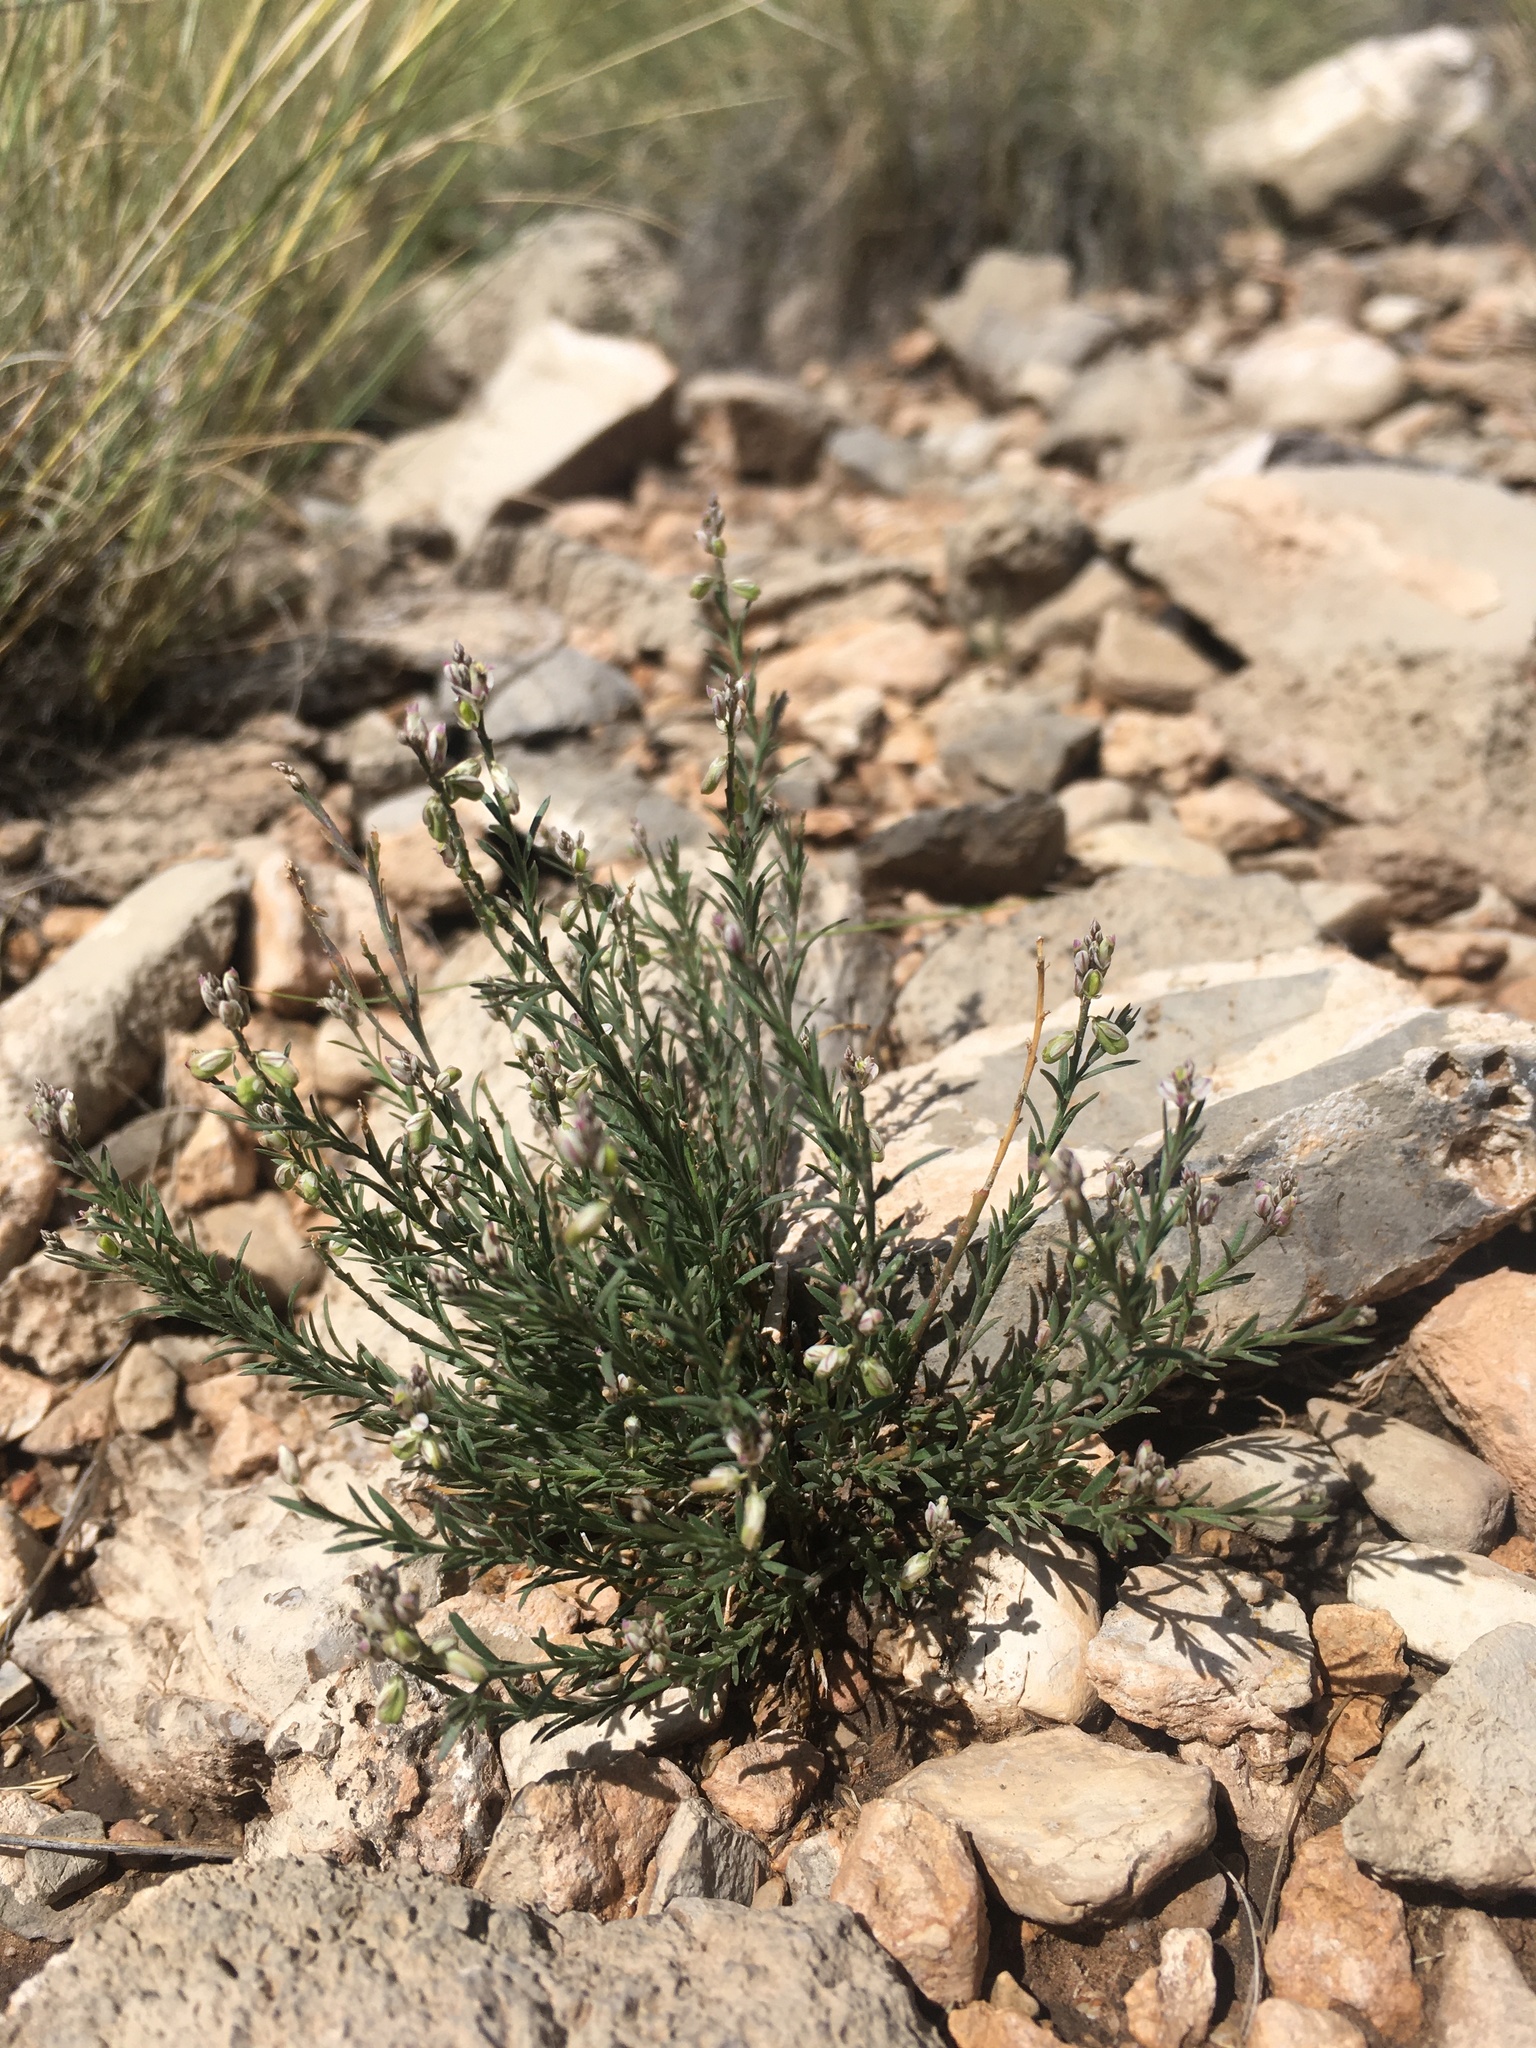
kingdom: Plantae
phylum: Tracheophyta
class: Magnoliopsida
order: Fabales
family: Polygalaceae
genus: Polygala
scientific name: Polygala scoparioides
